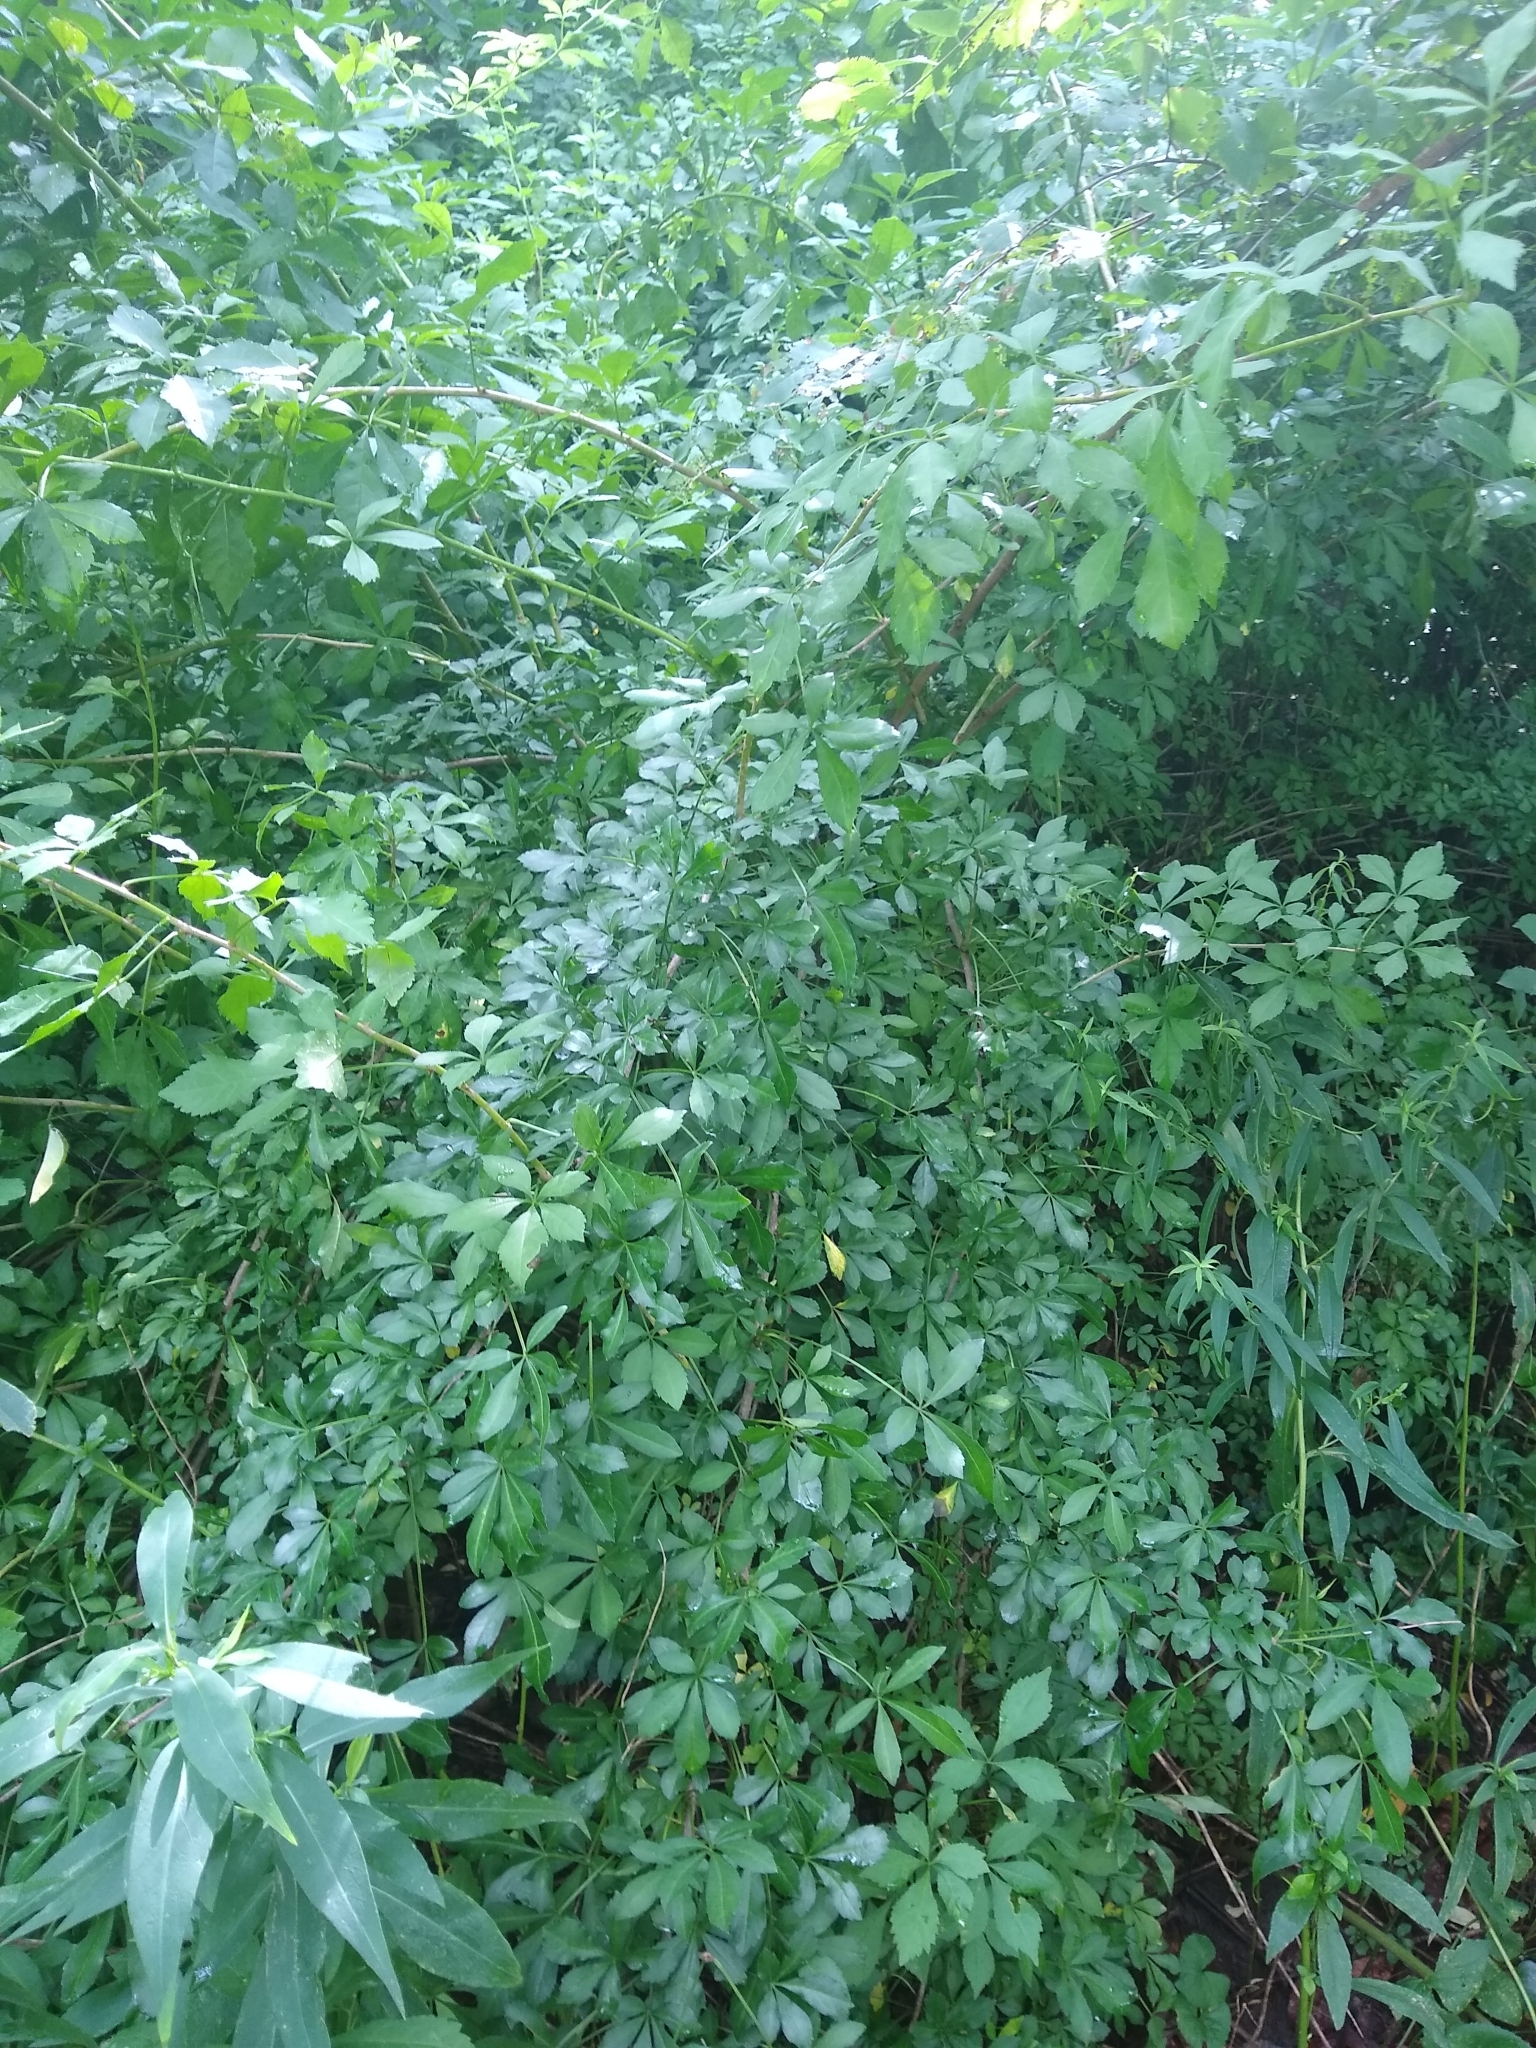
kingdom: Plantae
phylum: Tracheophyta
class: Magnoliopsida
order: Apiales
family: Araliaceae
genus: Eleutherococcus
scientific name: Eleutherococcus sieboldianus
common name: Ginseng
